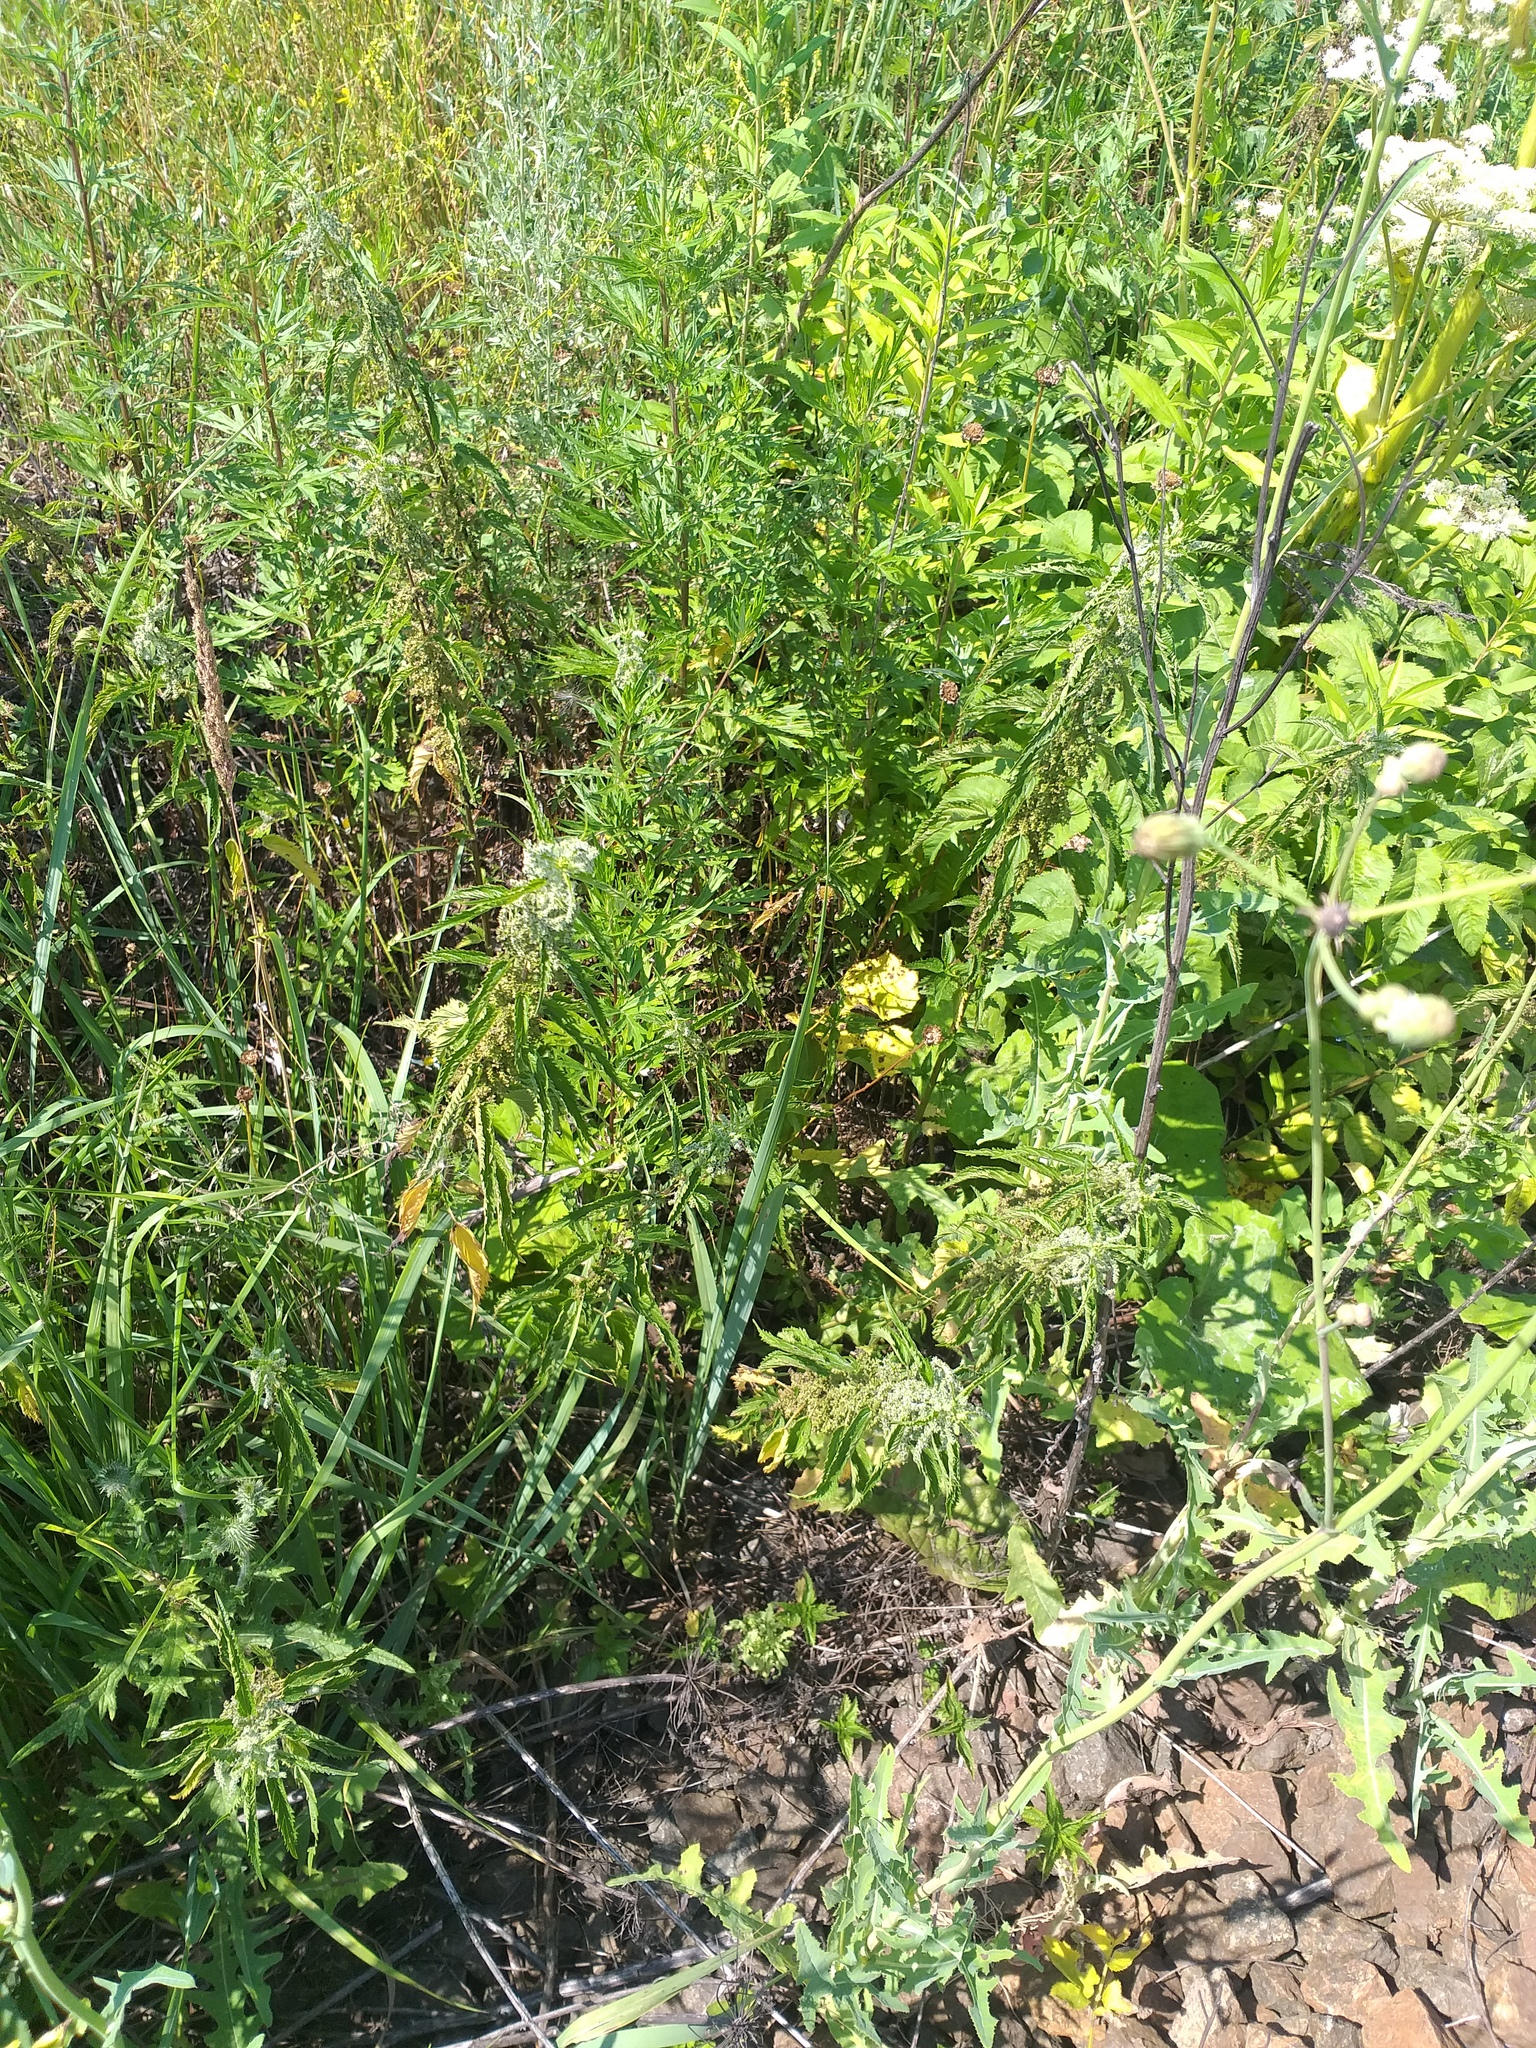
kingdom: Plantae
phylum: Tracheophyta
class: Magnoliopsida
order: Rosales
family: Urticaceae
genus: Urtica
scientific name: Urtica dioica
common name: Common nettle
